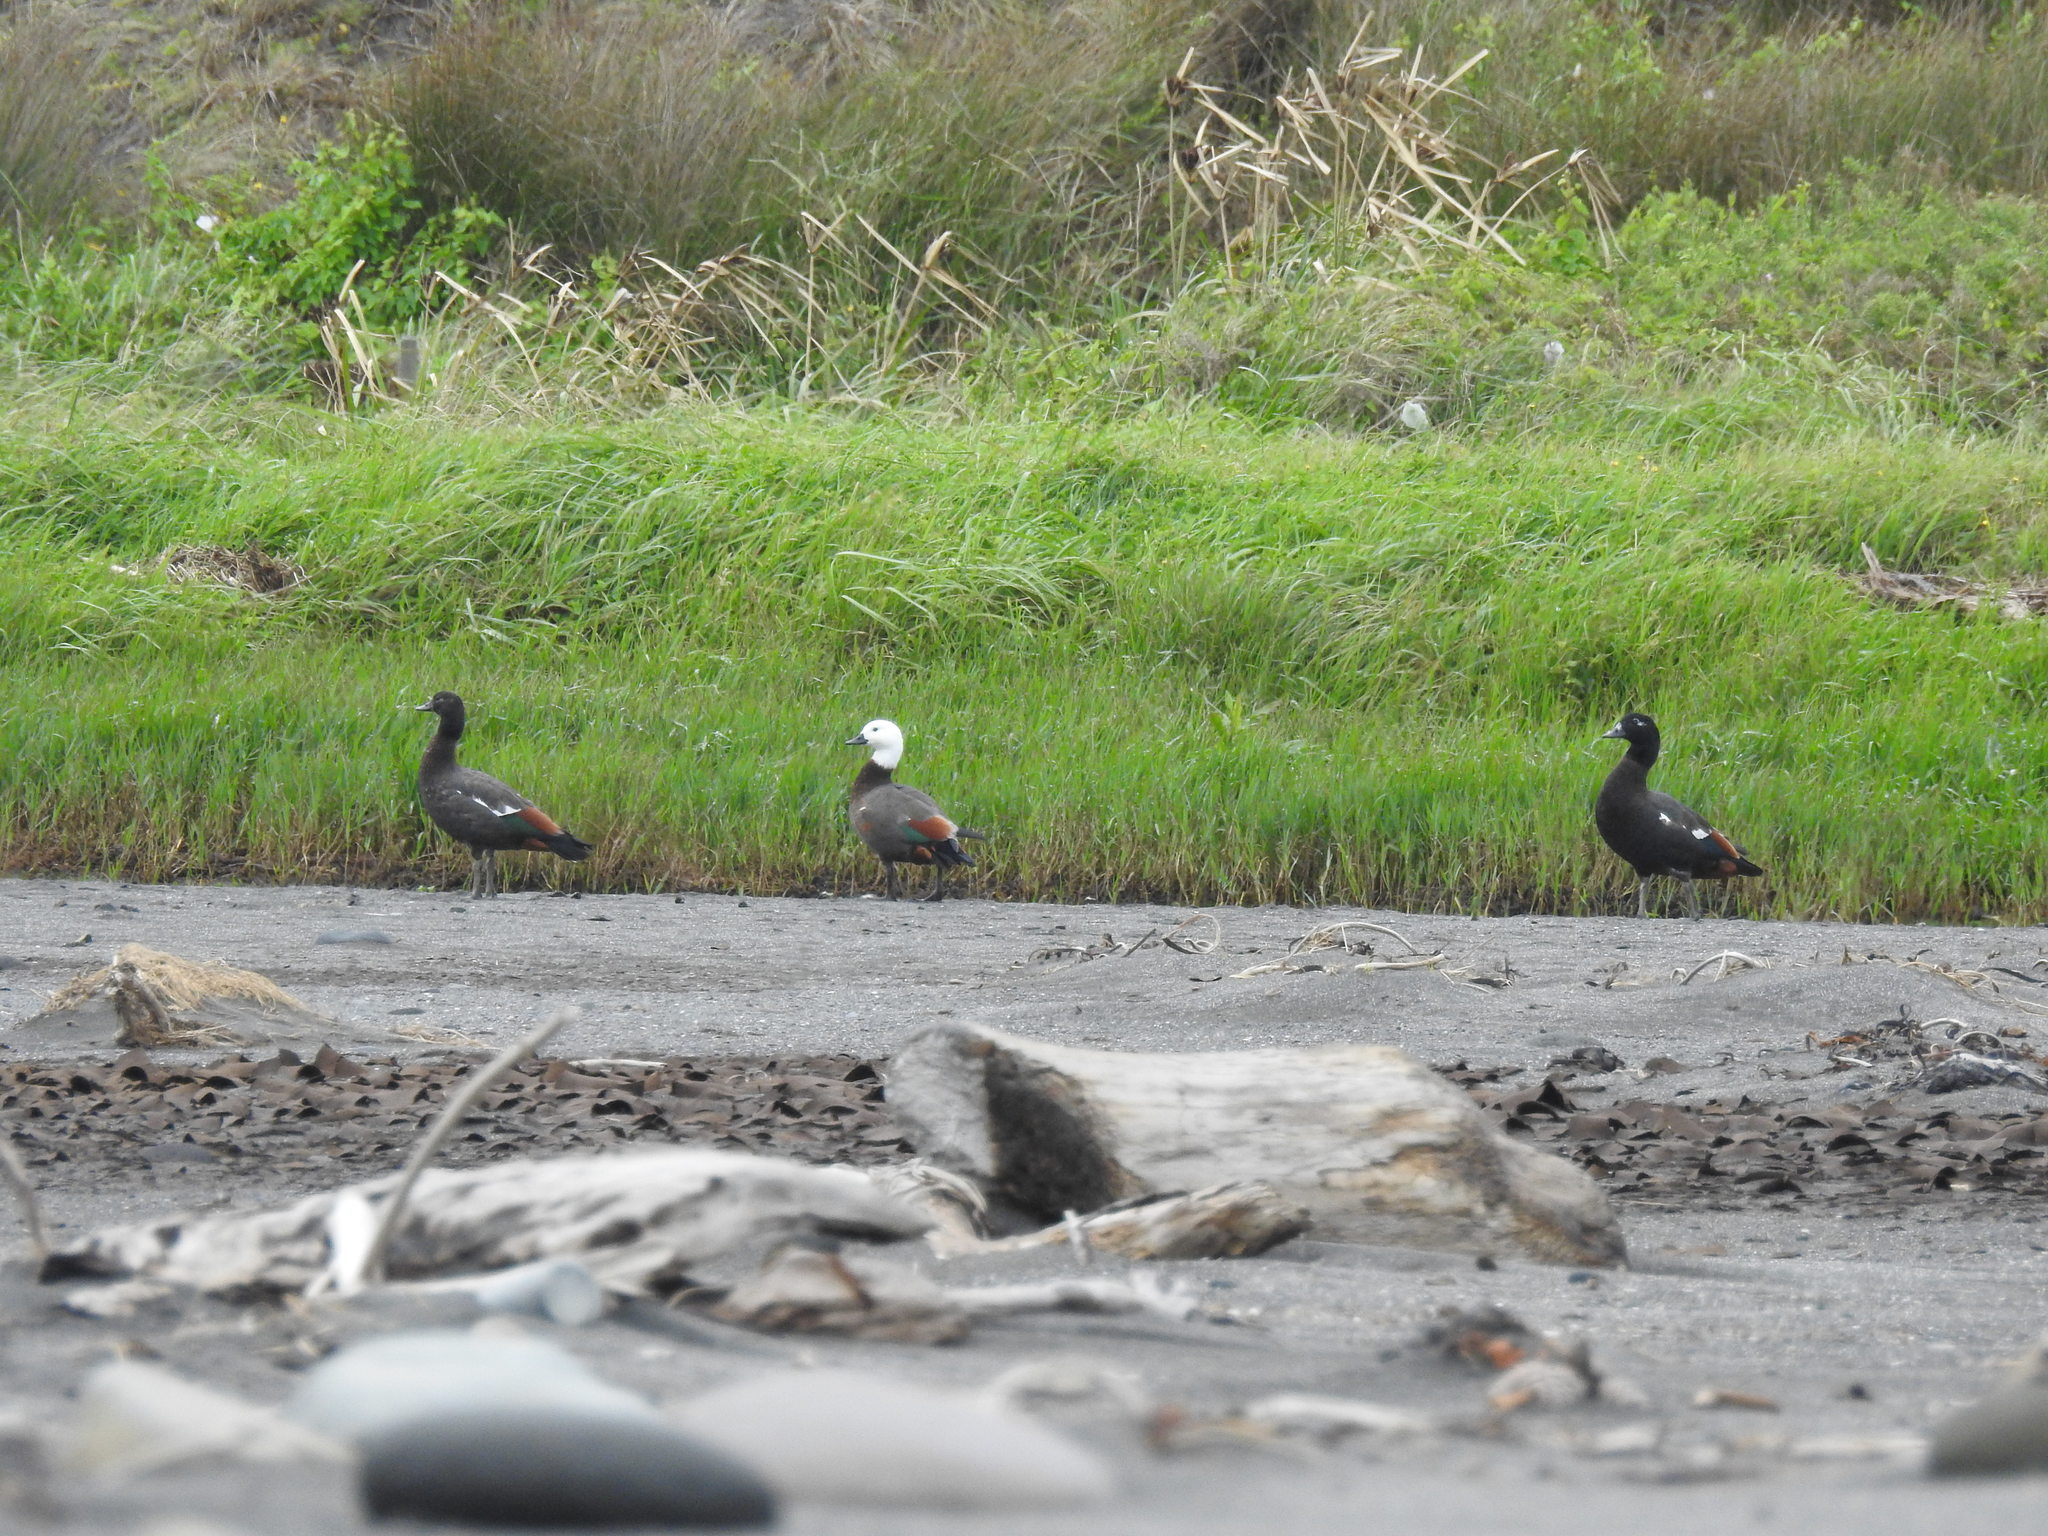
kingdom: Animalia
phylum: Chordata
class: Aves
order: Anseriformes
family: Anatidae
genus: Tadorna
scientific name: Tadorna variegata
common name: Paradise shelduck
